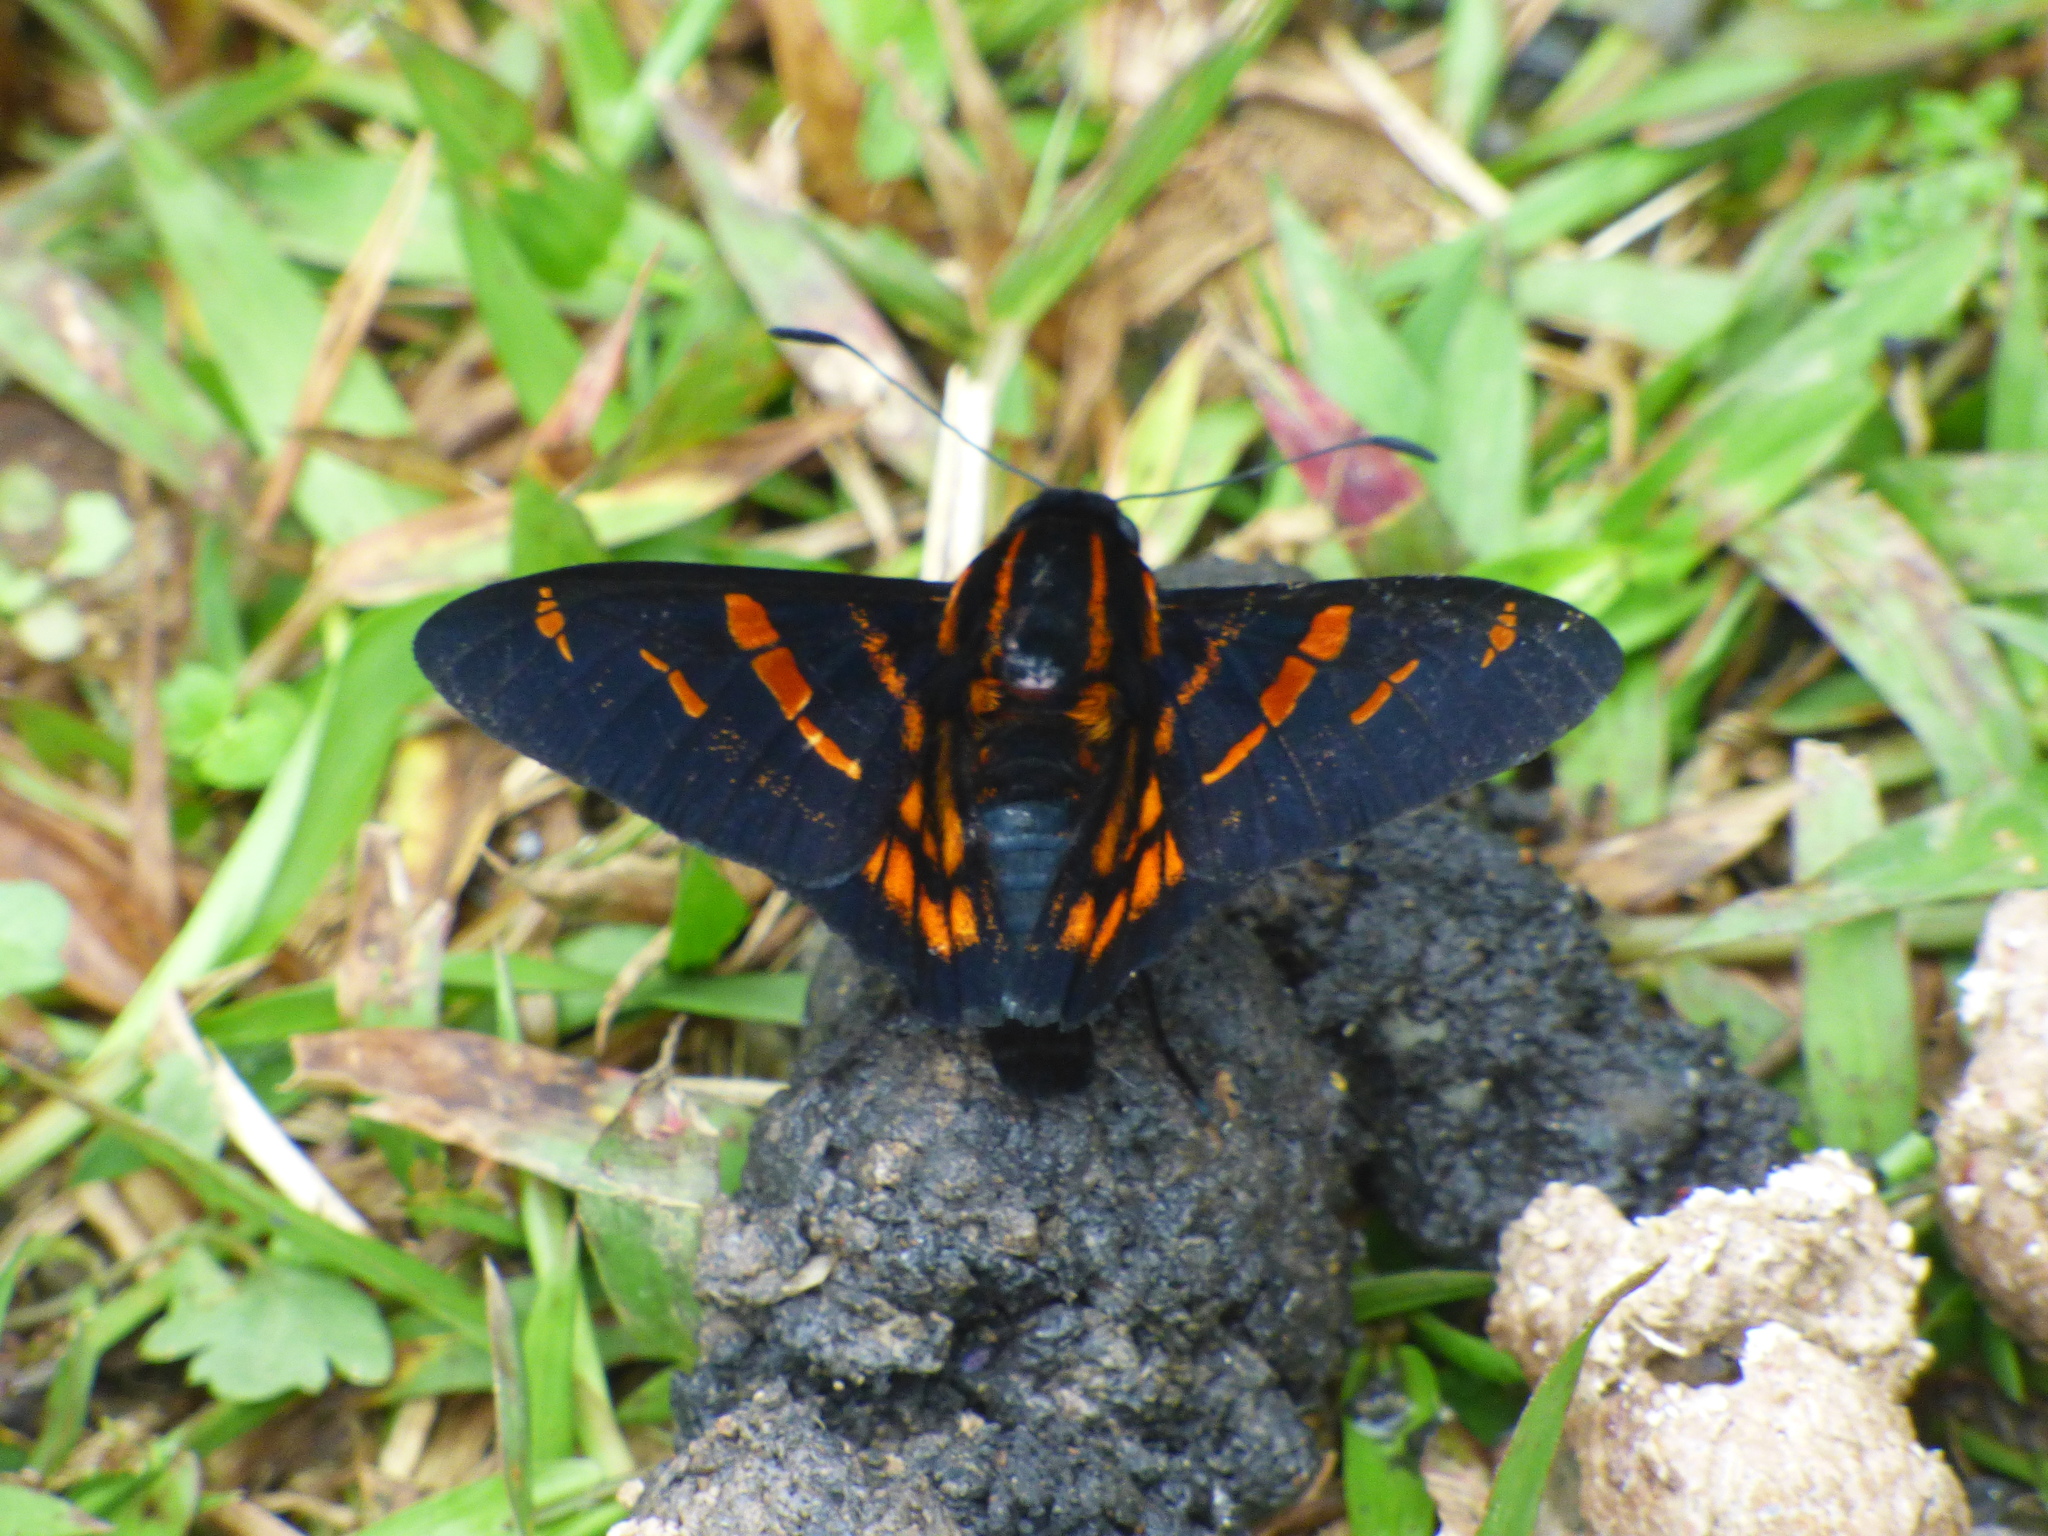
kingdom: Animalia
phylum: Arthropoda
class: Insecta
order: Lepidoptera
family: Hesperiidae
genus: Mimardaris
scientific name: Mimardaris
